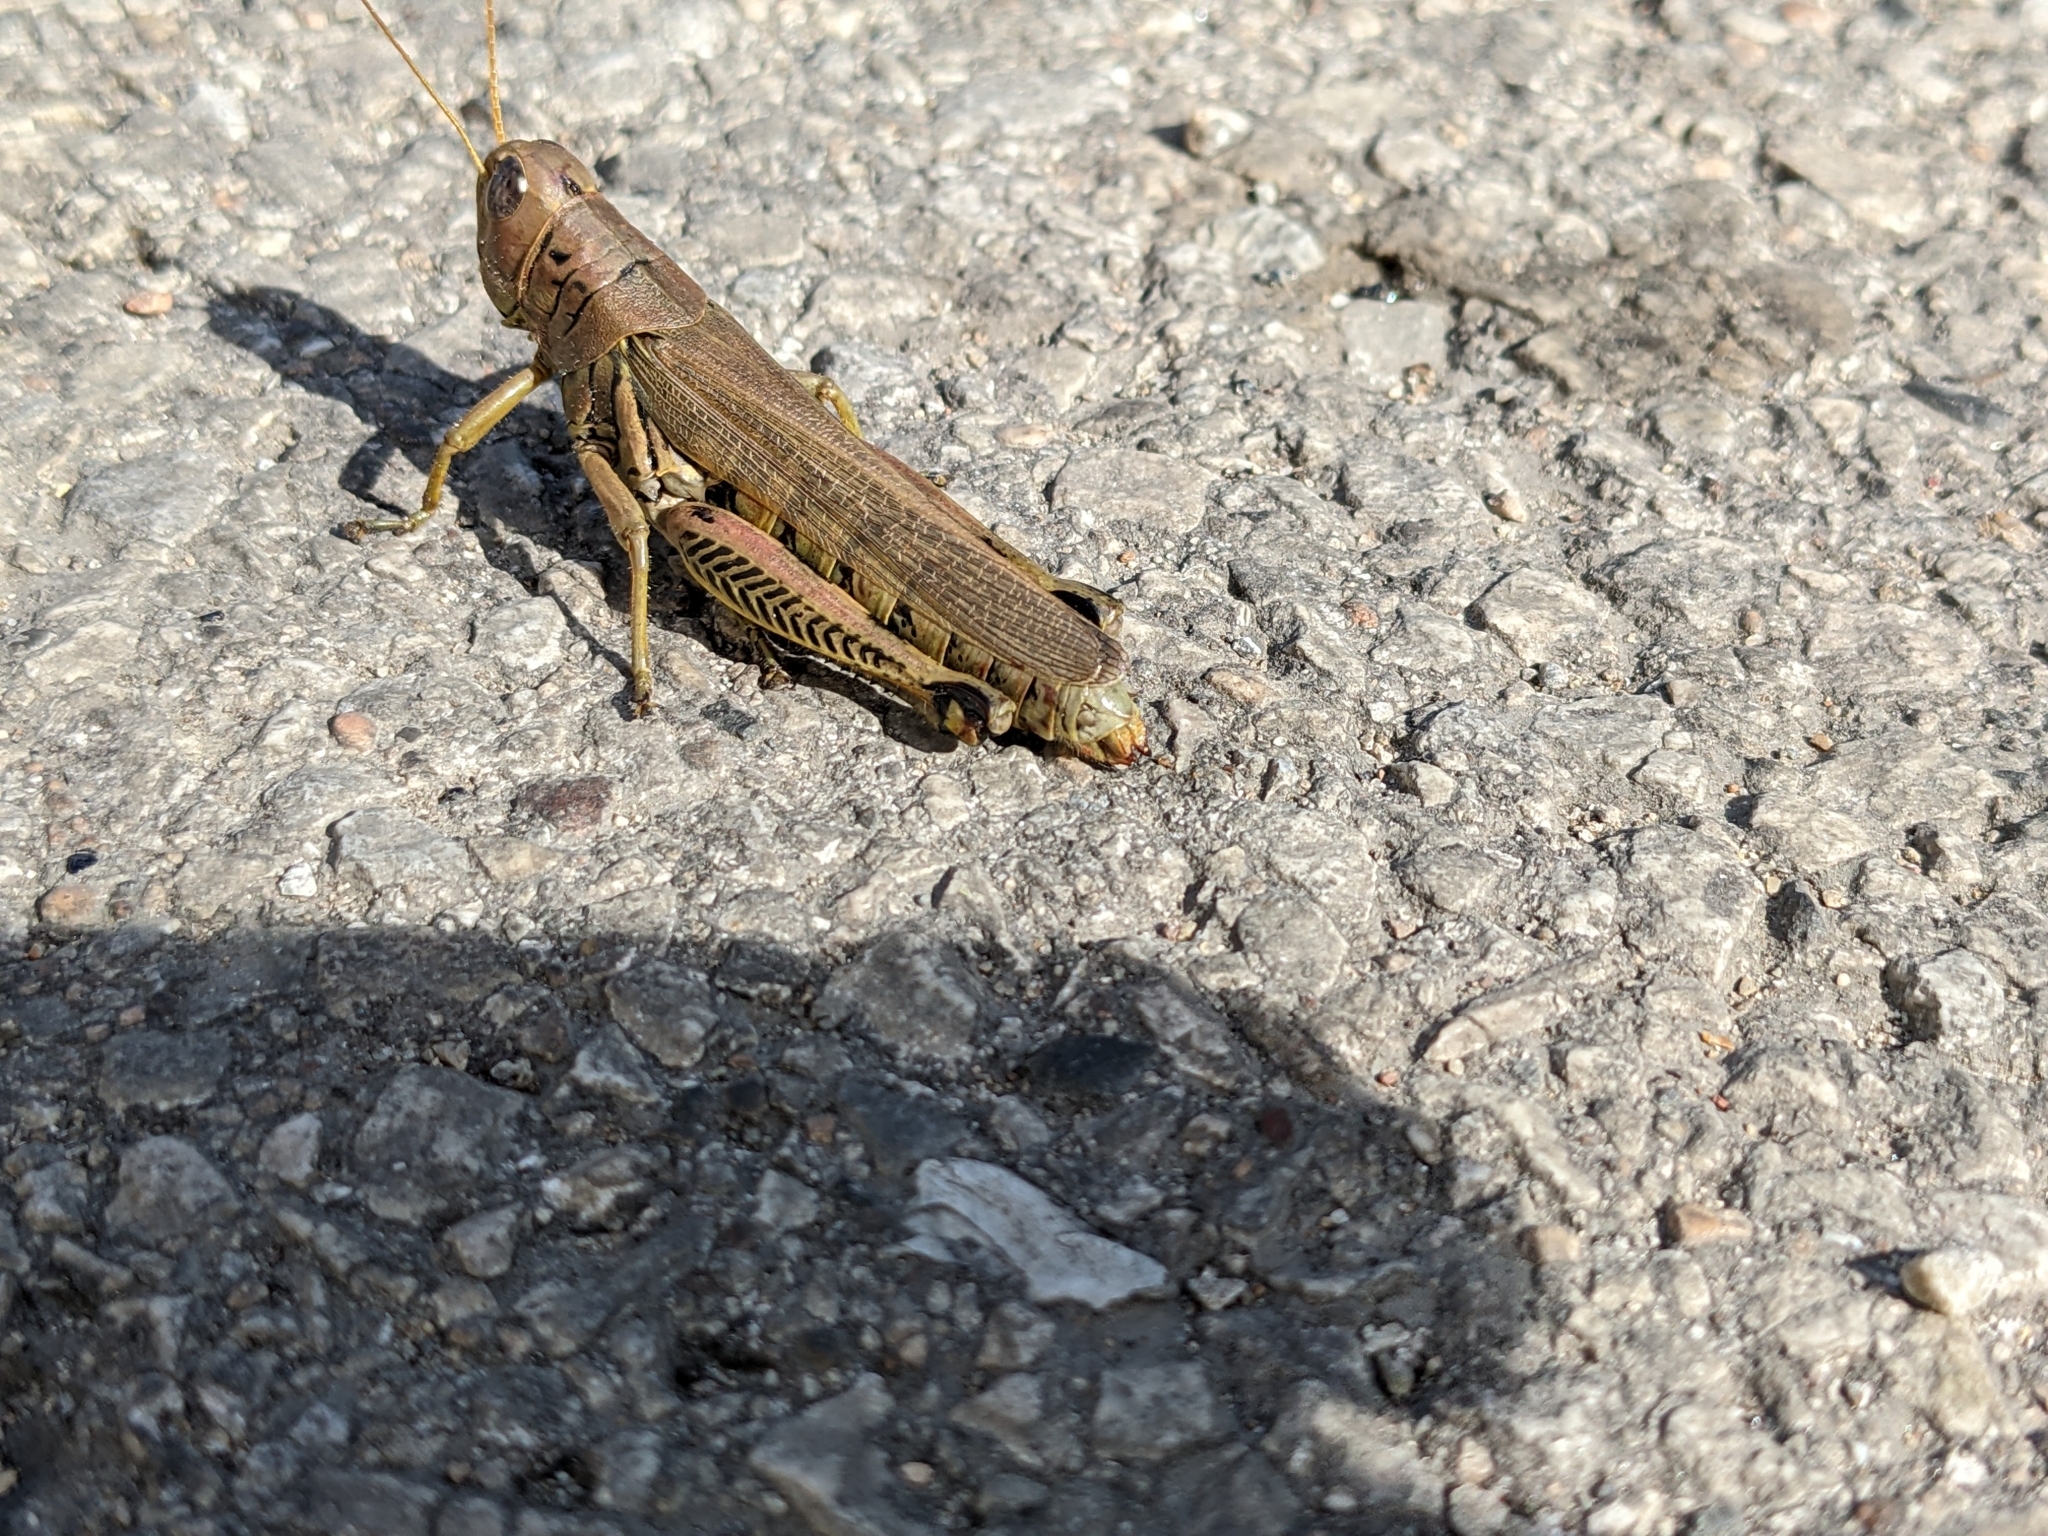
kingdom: Animalia
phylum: Arthropoda
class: Insecta
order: Orthoptera
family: Acrididae
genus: Melanoplus
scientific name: Melanoplus differentialis
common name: Differential grasshopper
